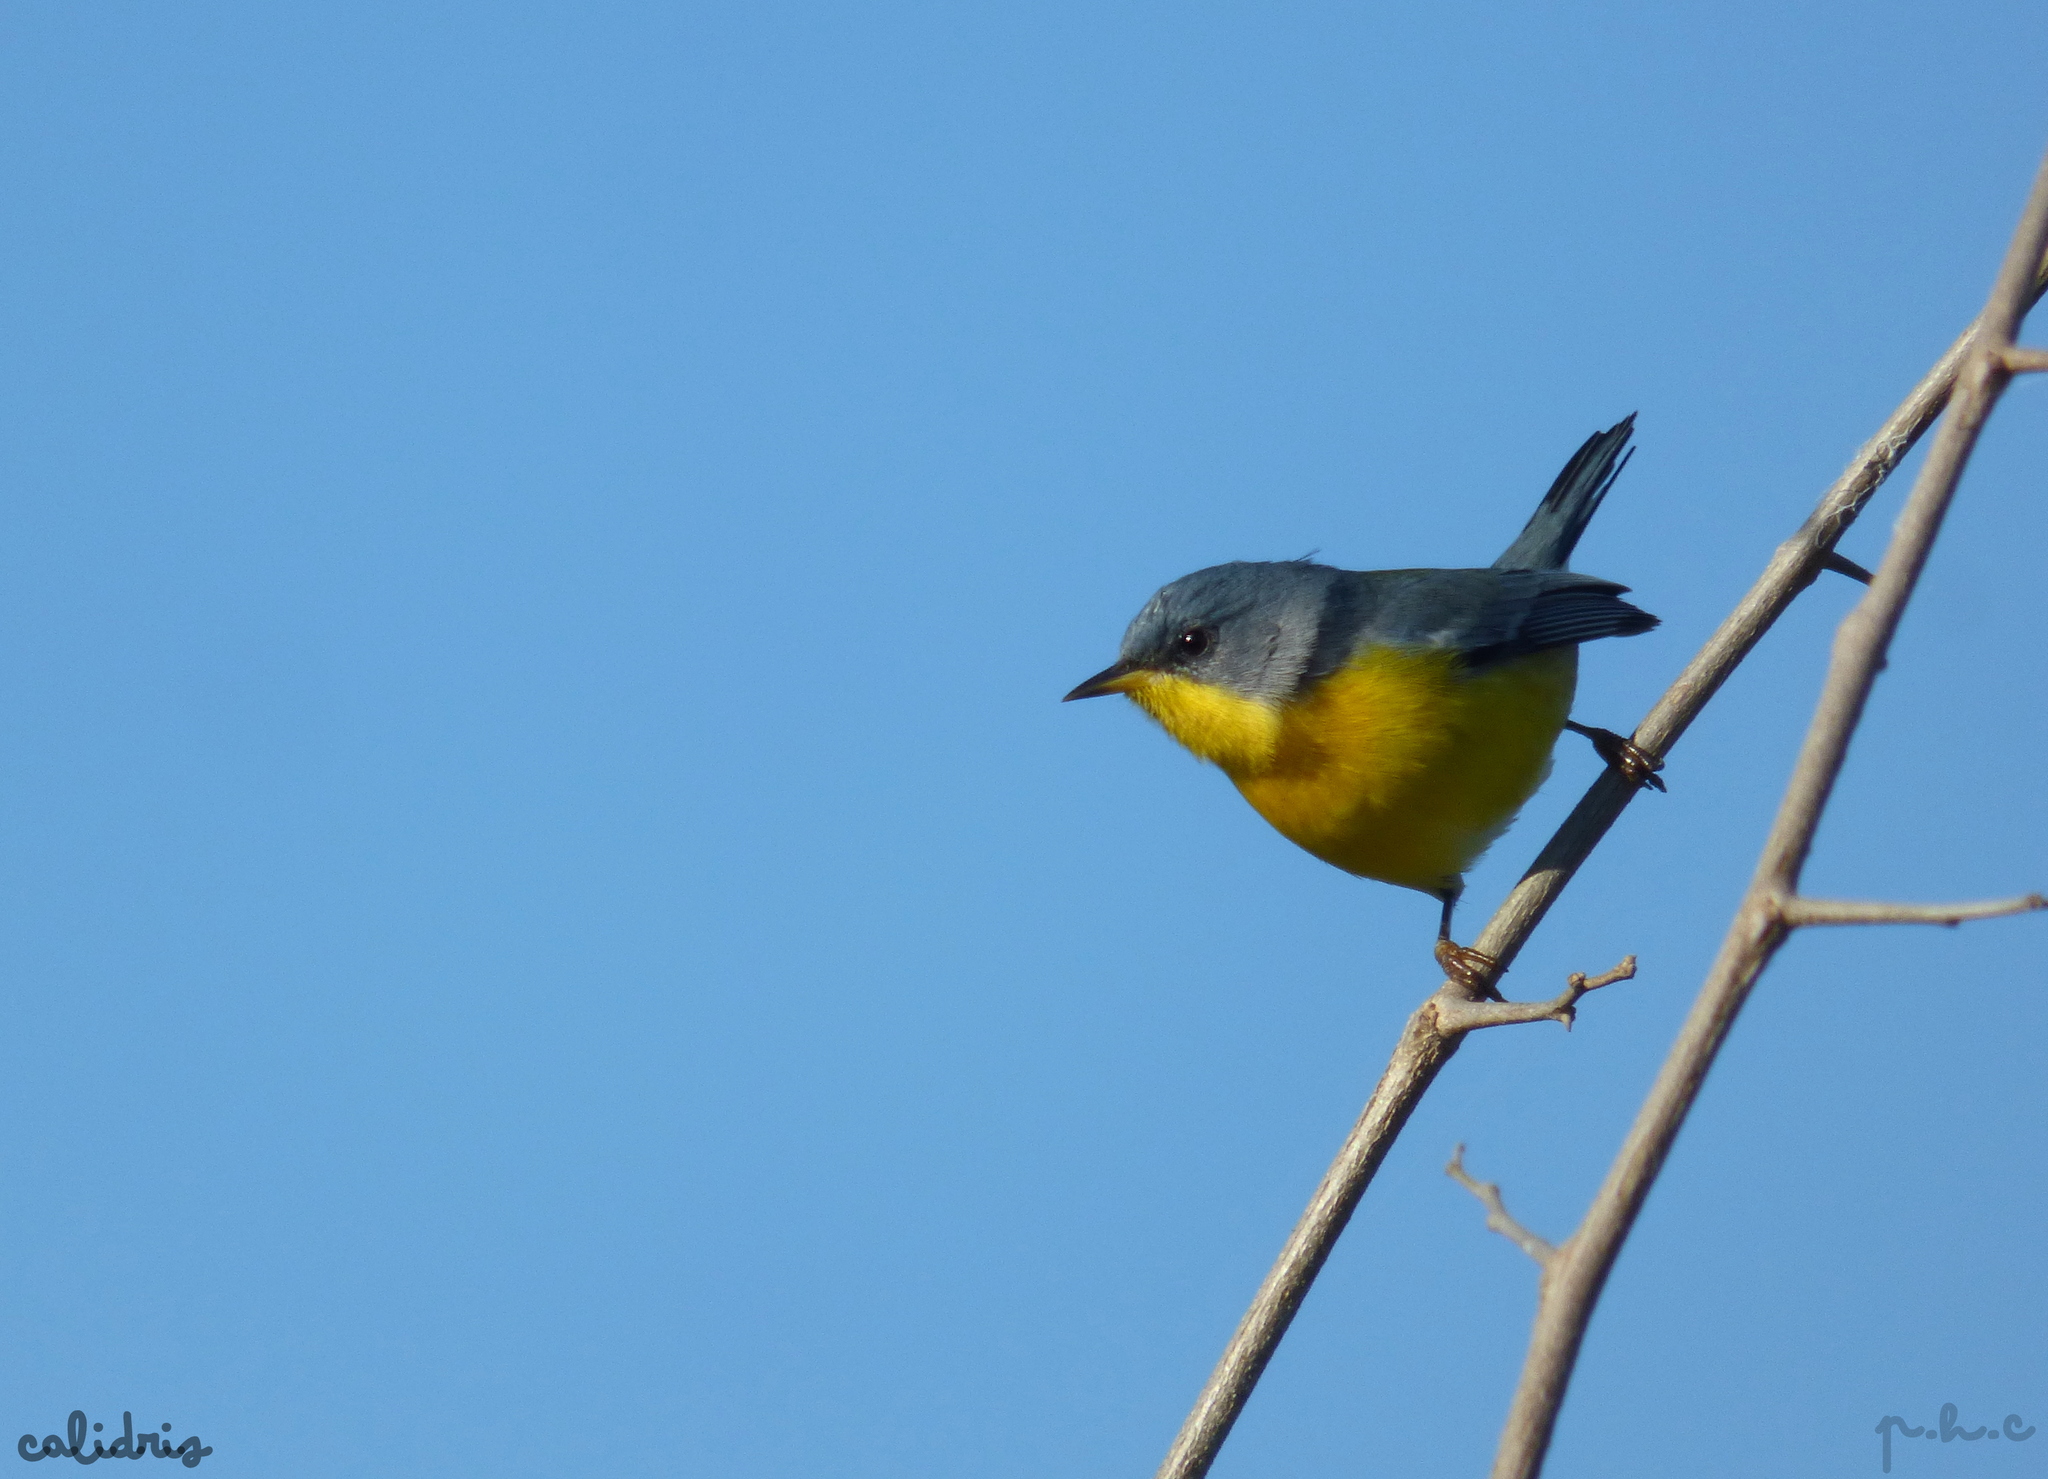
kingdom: Animalia
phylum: Chordata
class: Aves
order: Passeriformes
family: Parulidae
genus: Setophaga
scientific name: Setophaga pitiayumi
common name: Tropical parula
